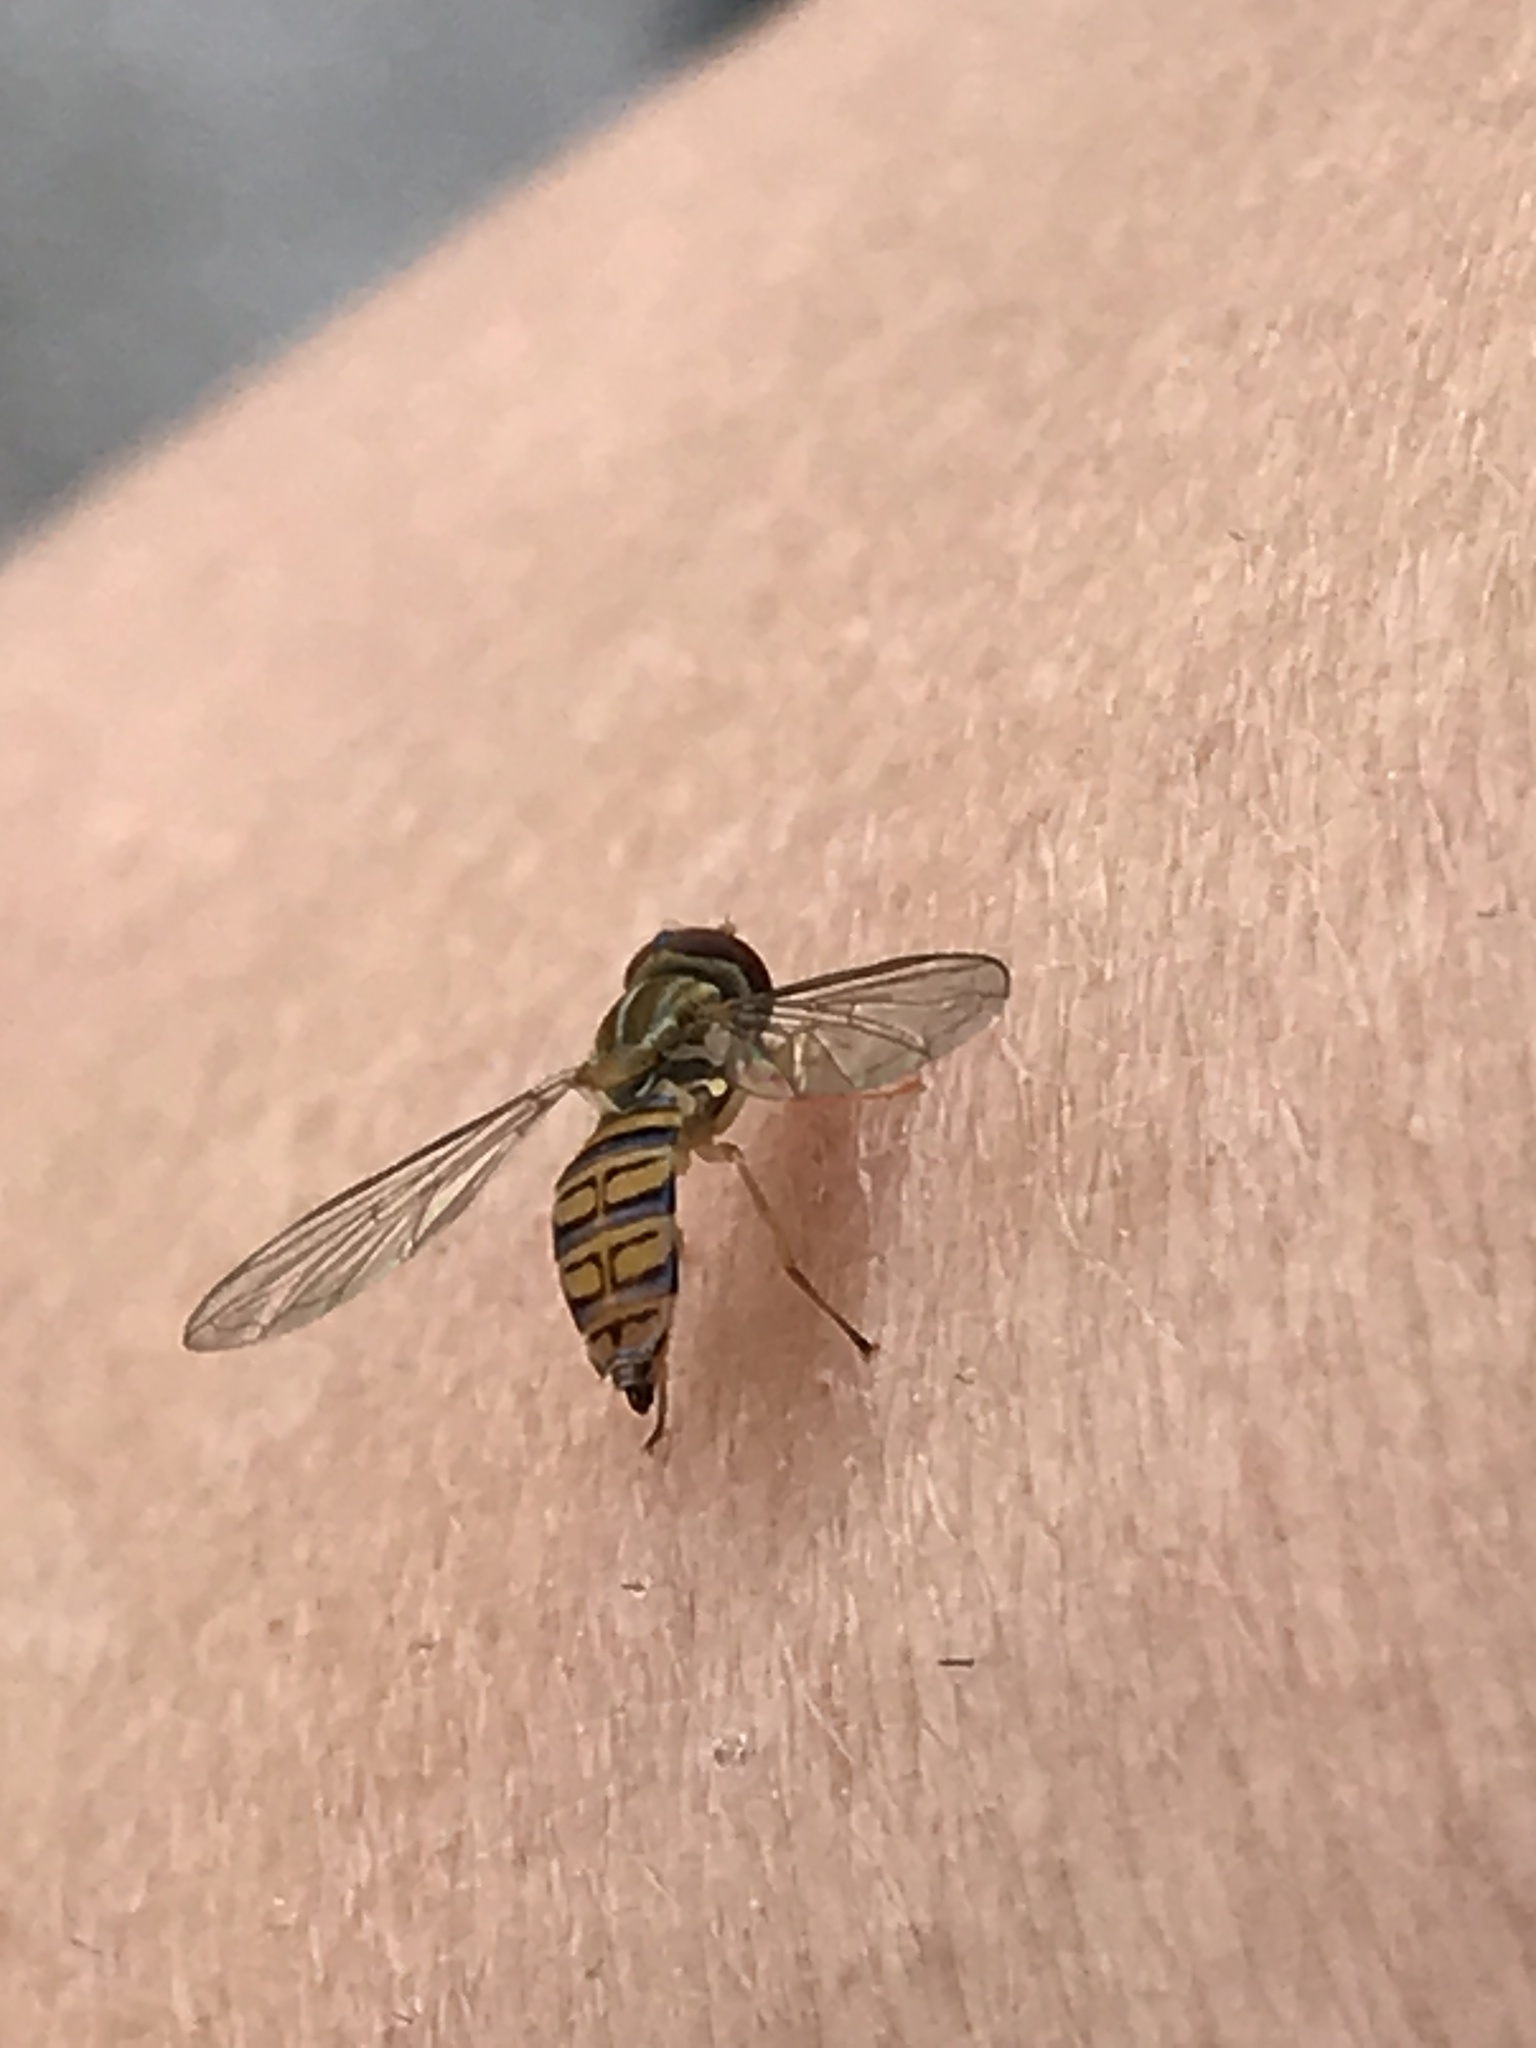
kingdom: Animalia
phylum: Arthropoda
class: Insecta
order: Diptera
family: Syrphidae
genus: Toxomerus
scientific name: Toxomerus politus
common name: Maize calligrapher
